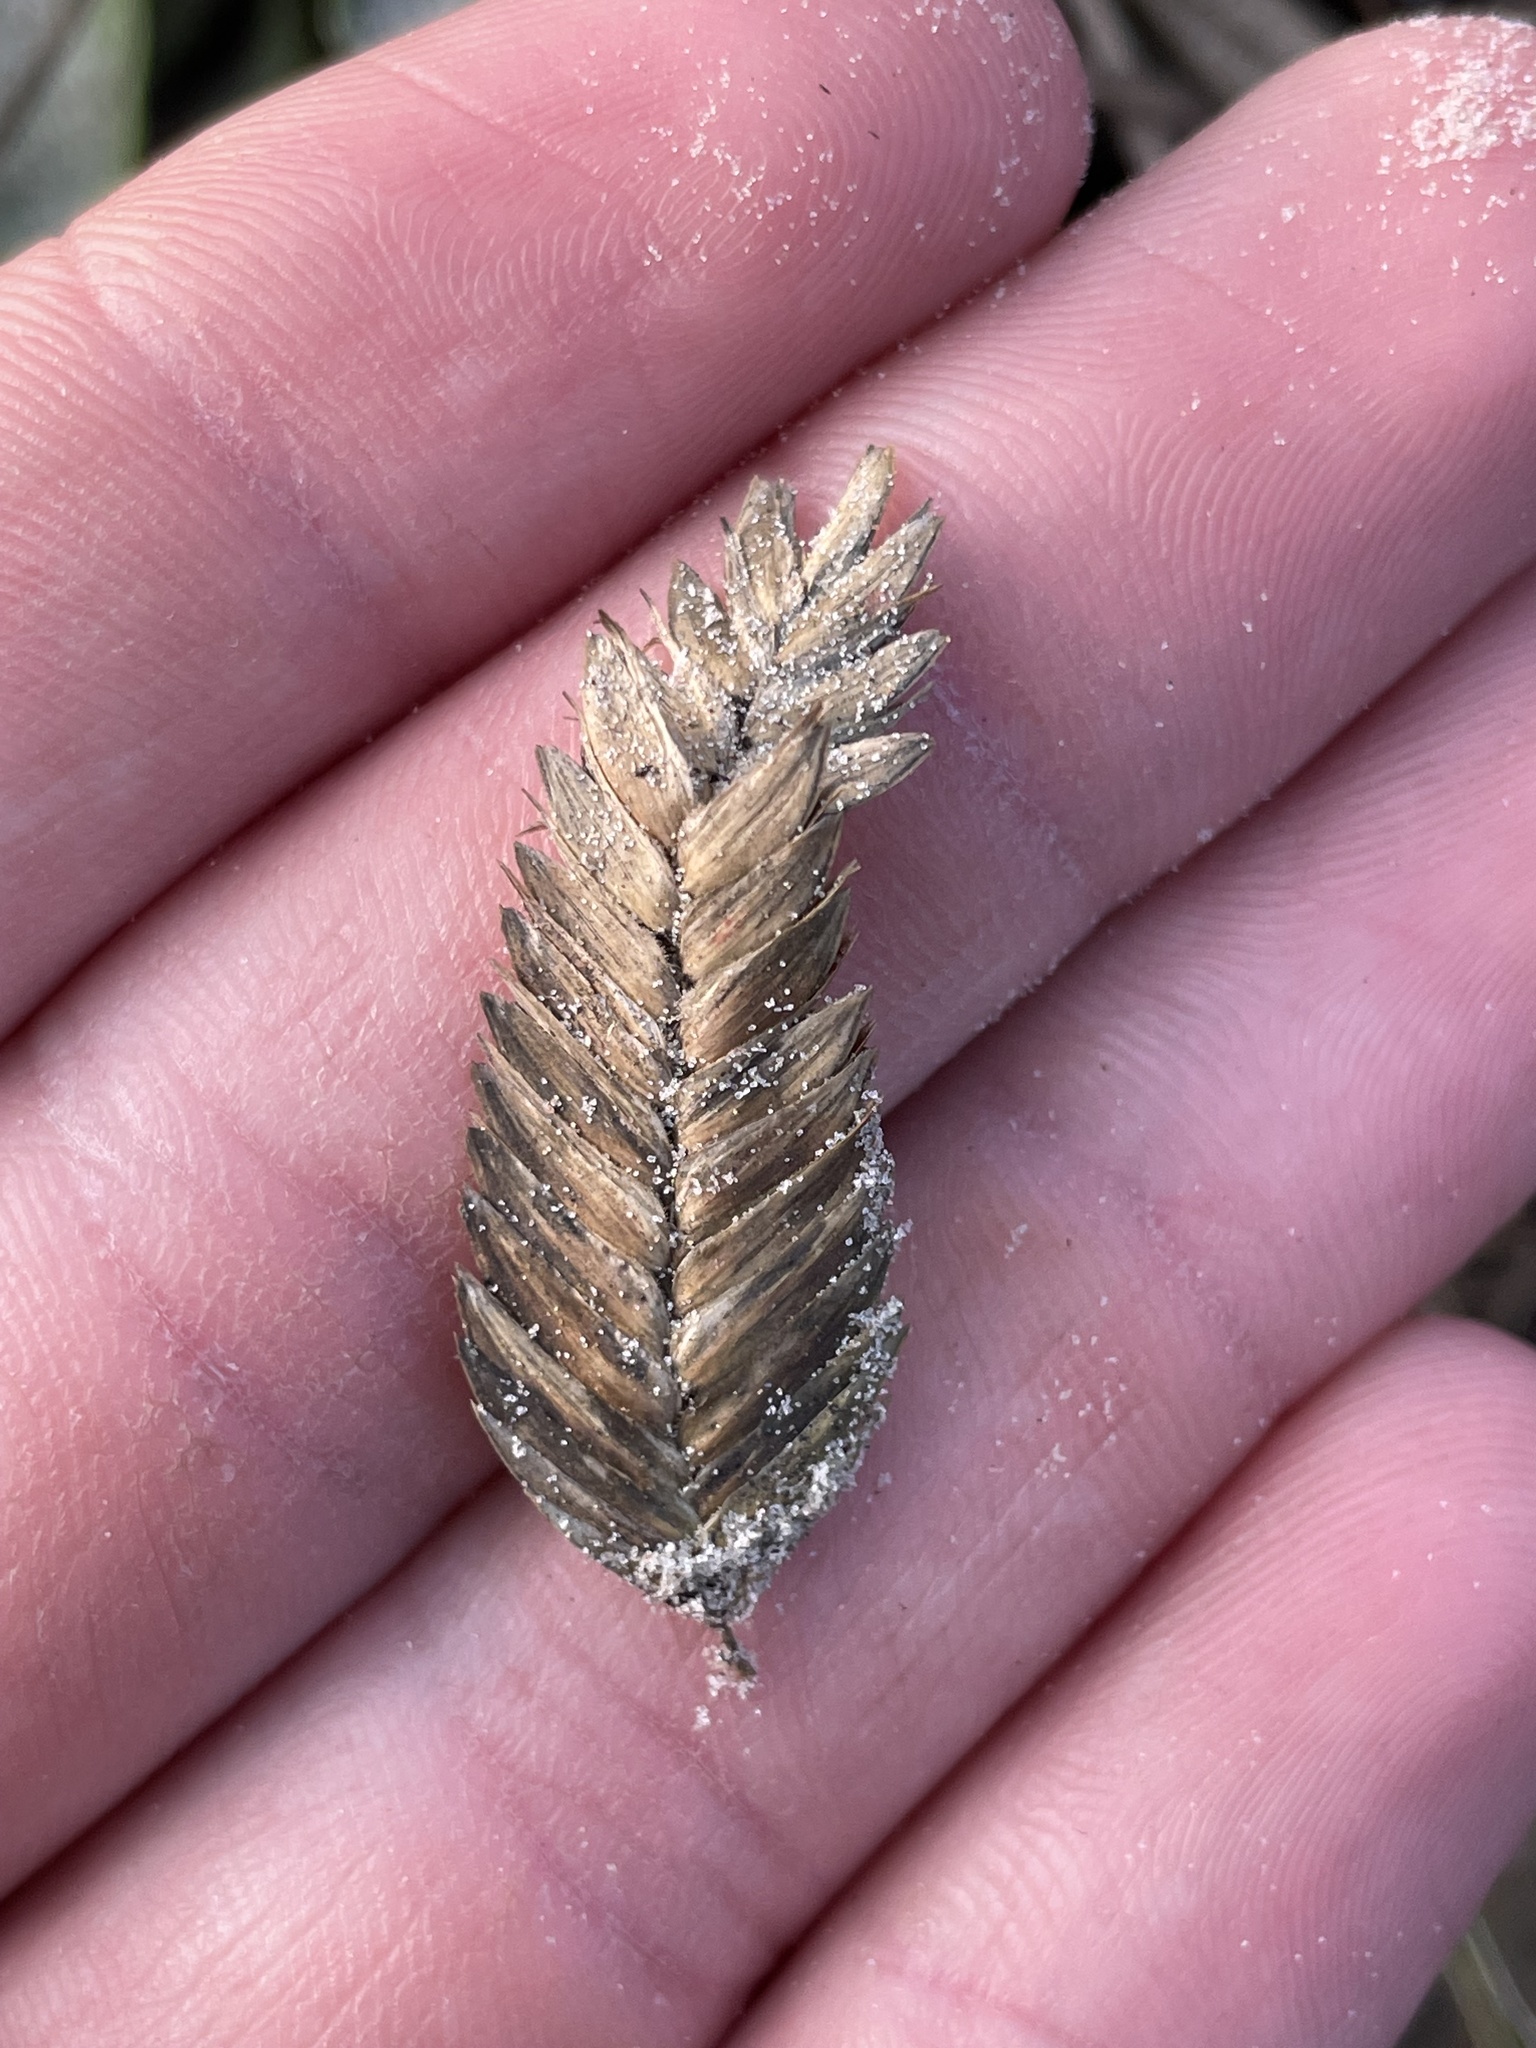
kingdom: Plantae
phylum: Tracheophyta
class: Liliopsida
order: Poales
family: Poaceae
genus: Uniola
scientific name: Uniola paniculata
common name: Seaside-oats
